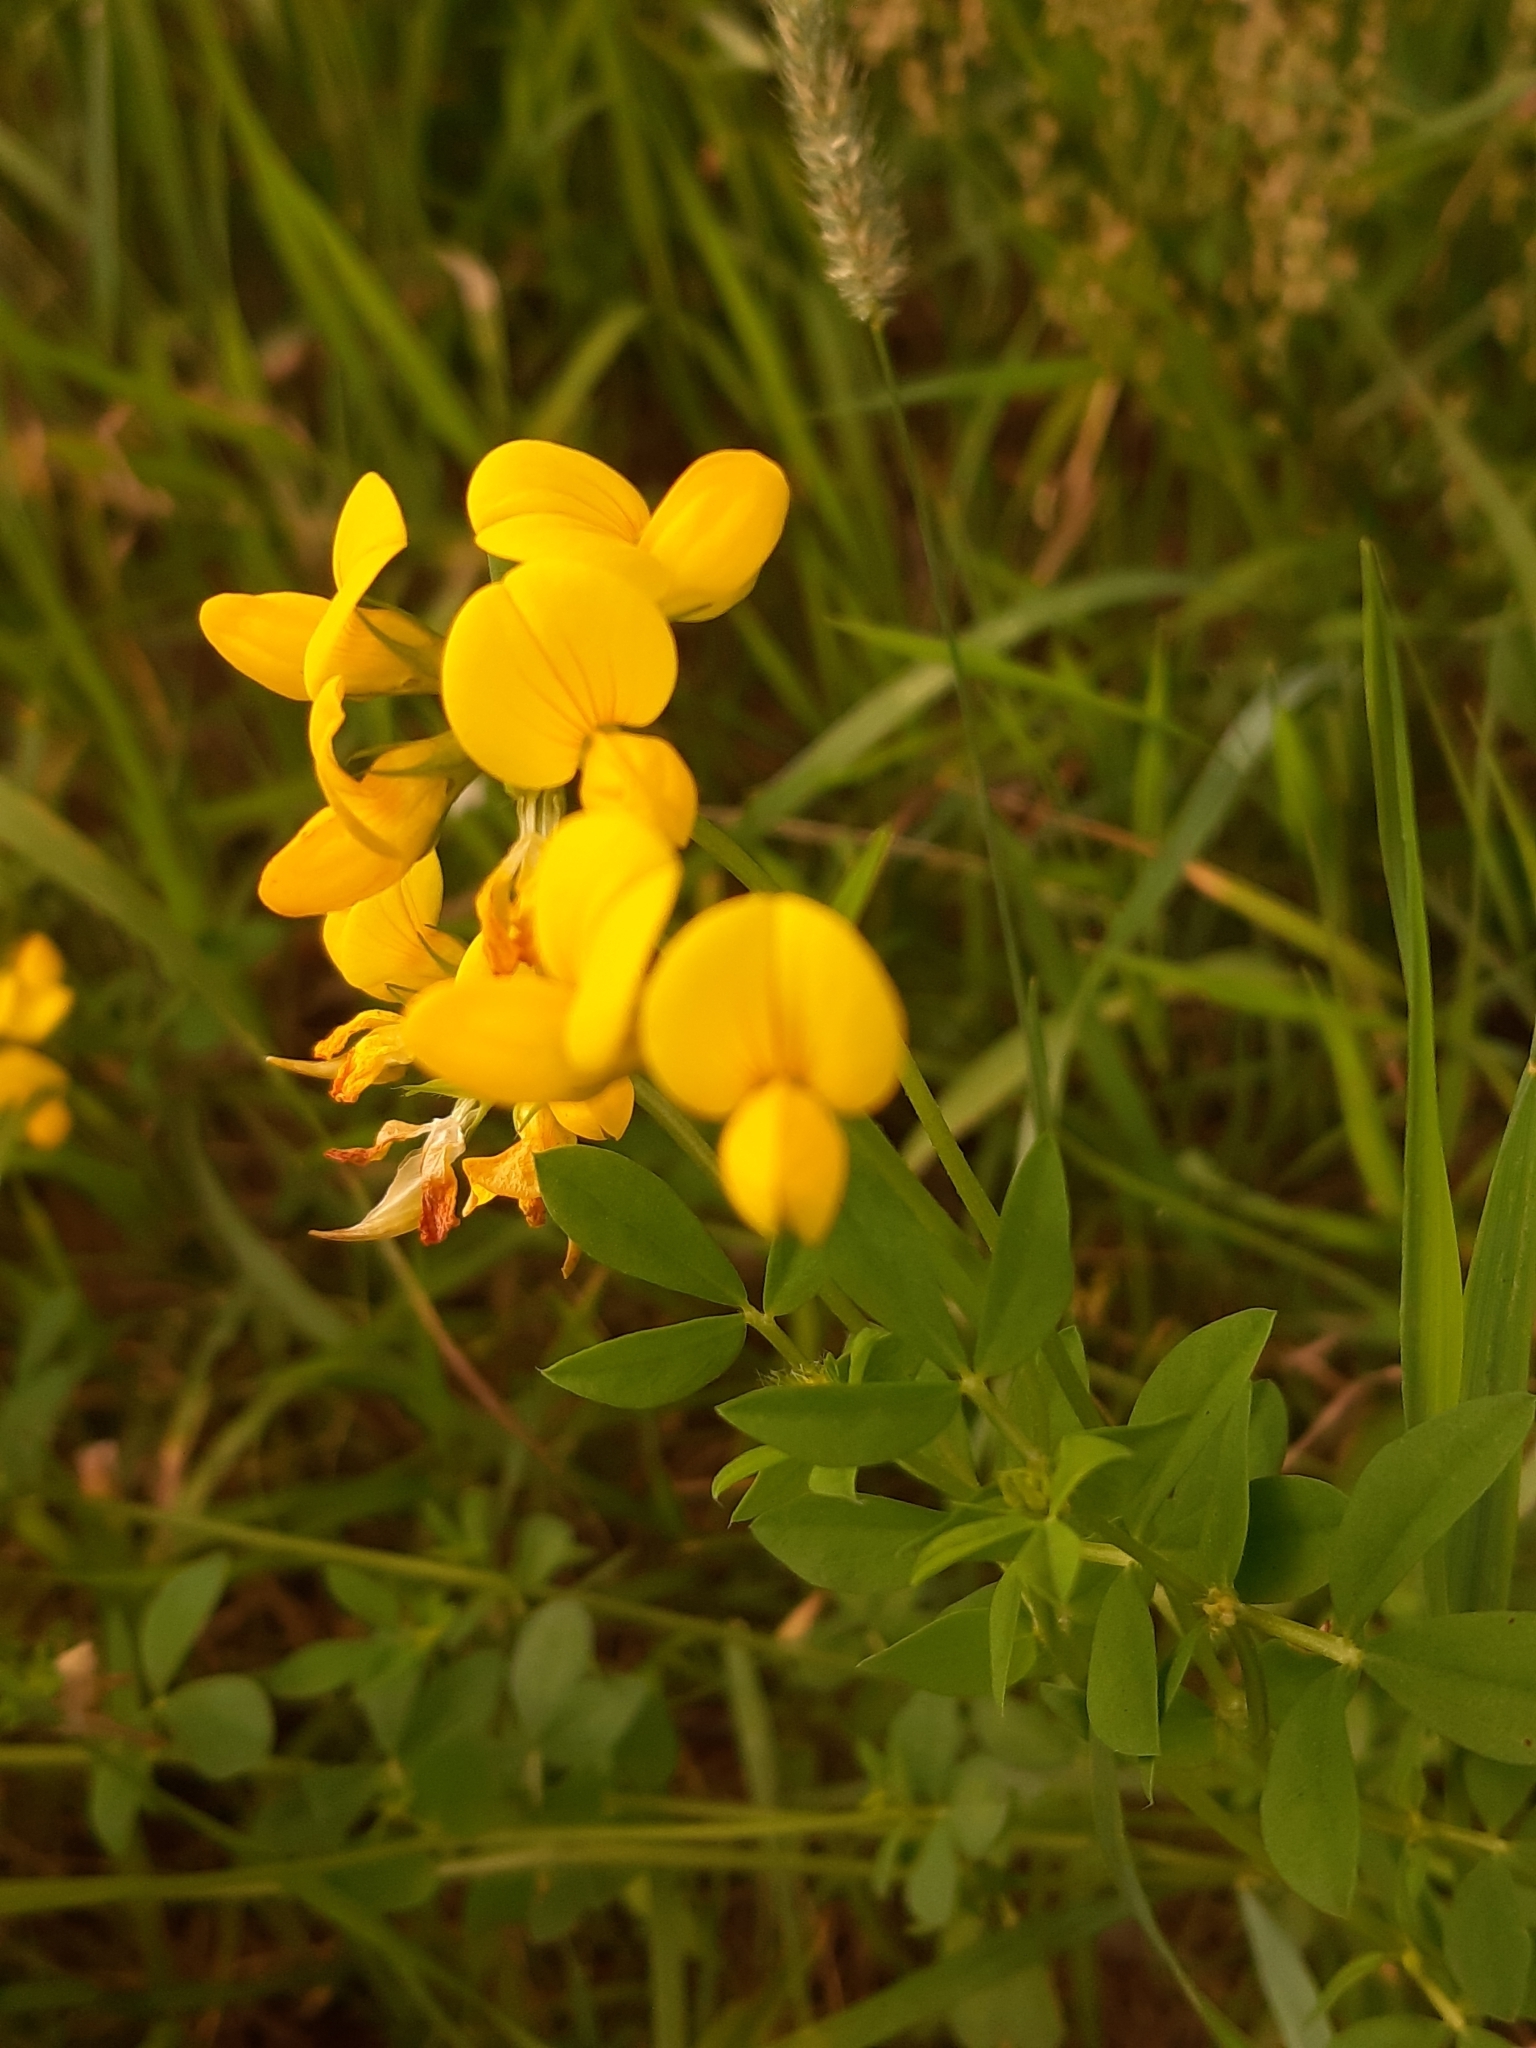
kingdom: Plantae
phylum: Tracheophyta
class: Magnoliopsida
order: Fabales
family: Fabaceae
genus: Lotus
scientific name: Lotus corniculatus
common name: Common bird's-foot-trefoil
